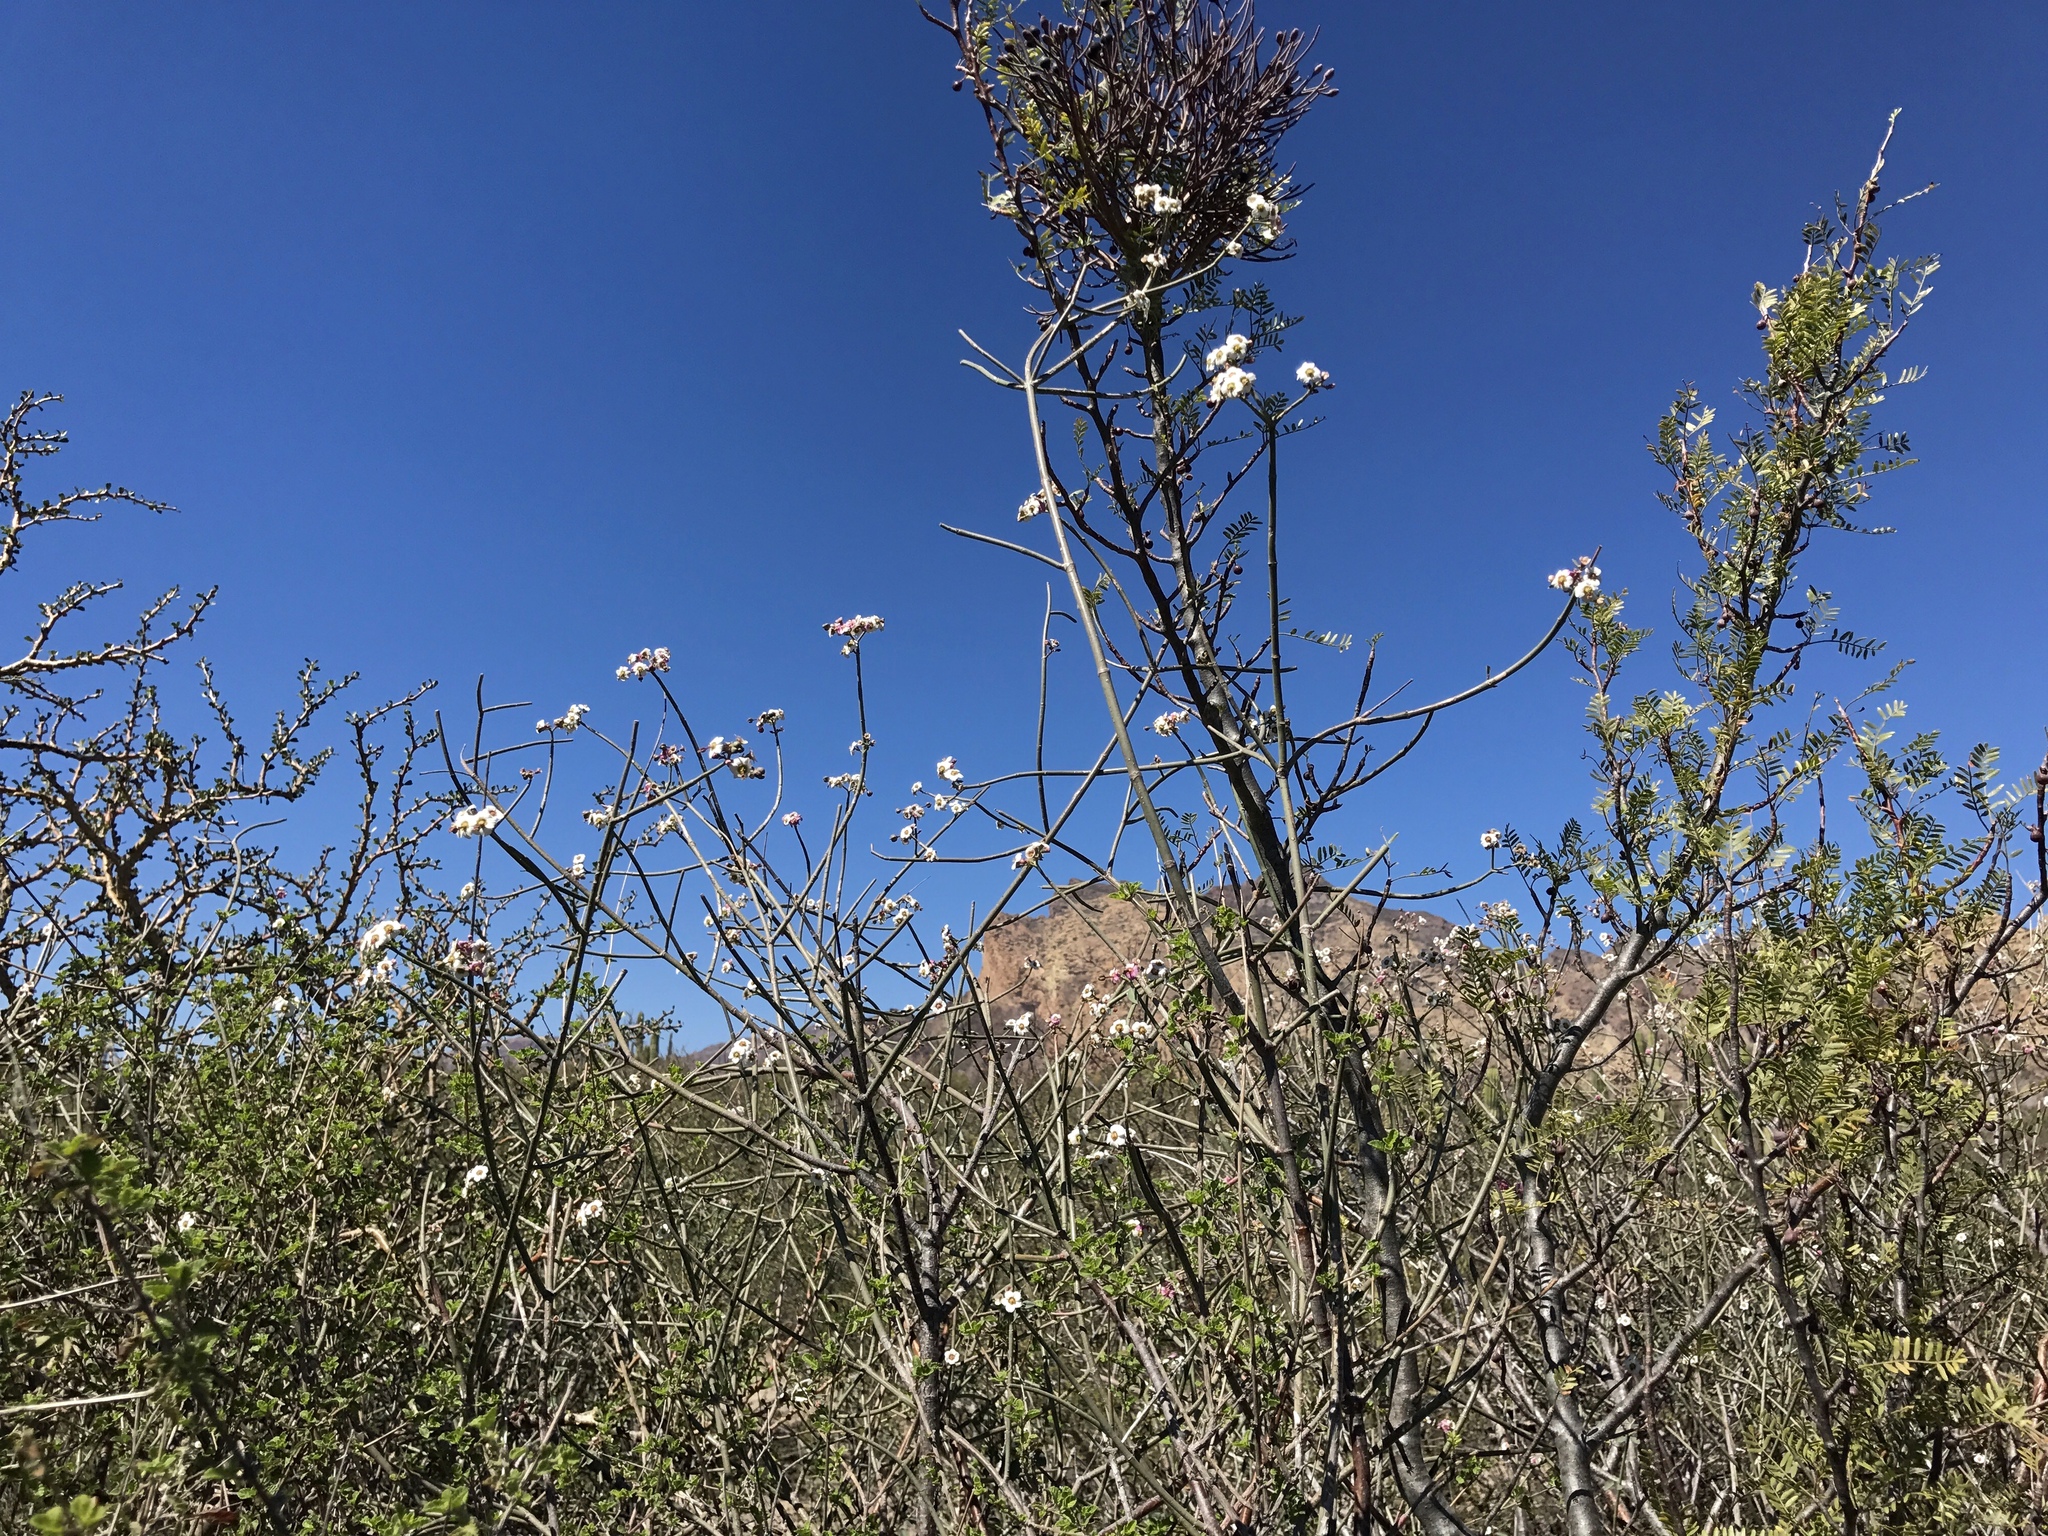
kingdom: Plantae
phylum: Tracheophyta
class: Magnoliopsida
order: Malpighiales
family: Euphorbiaceae
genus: Euphorbia
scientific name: Euphorbia xanti
